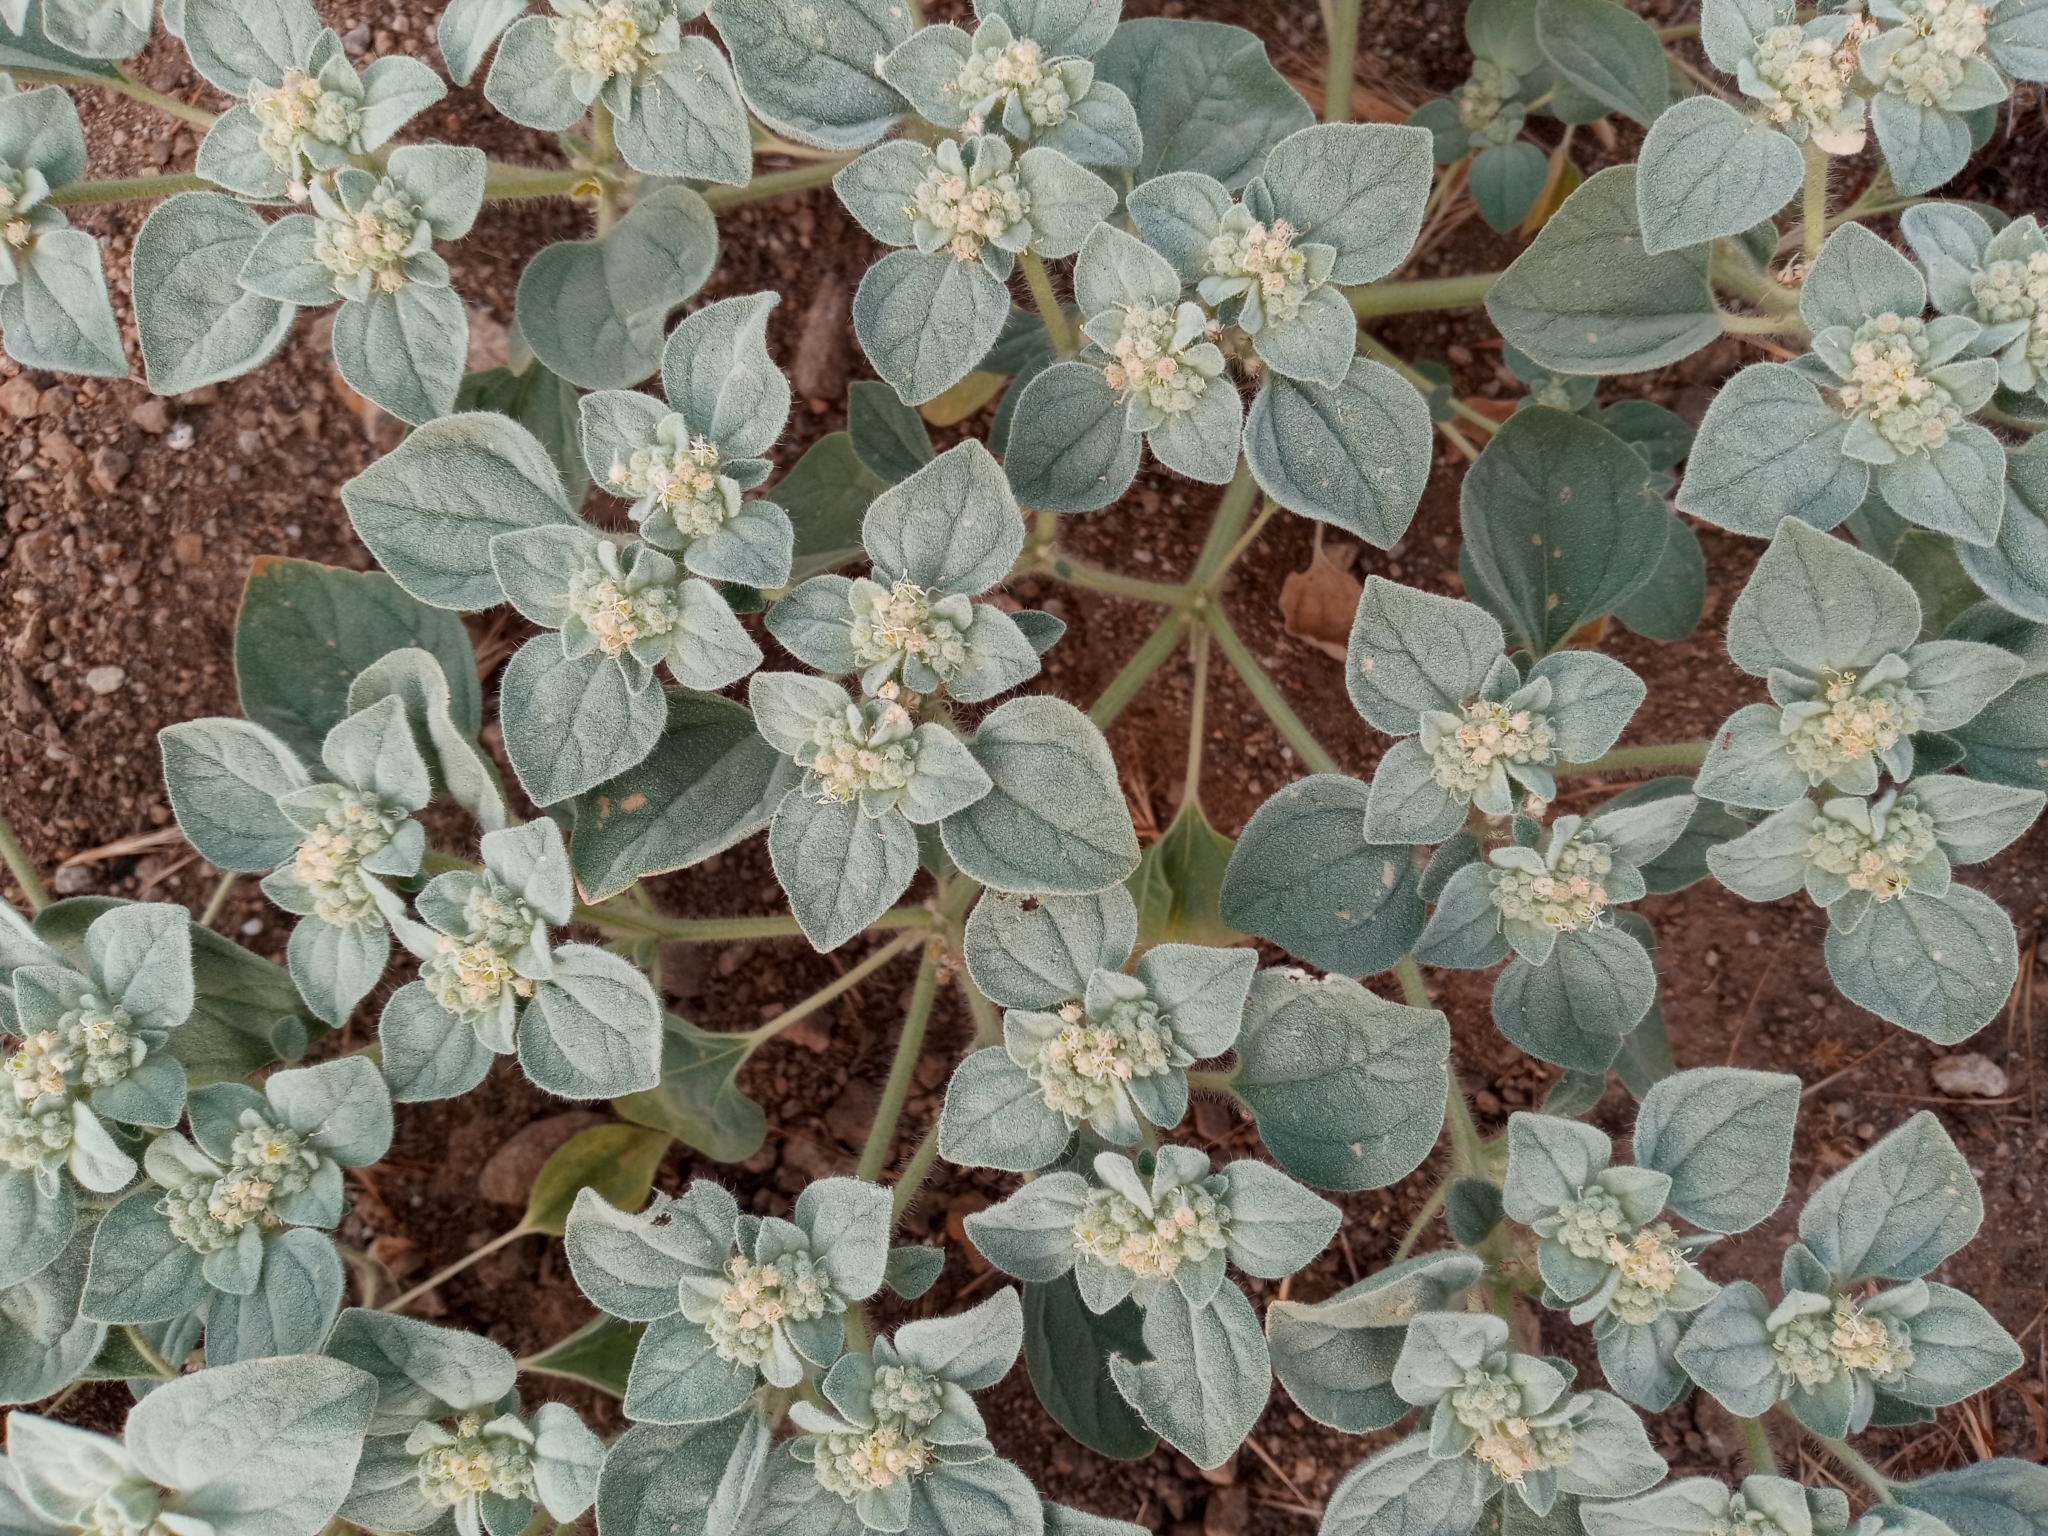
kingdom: Plantae
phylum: Tracheophyta
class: Magnoliopsida
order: Malpighiales
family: Euphorbiaceae
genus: Croton
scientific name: Croton setiger
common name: Dove weed
